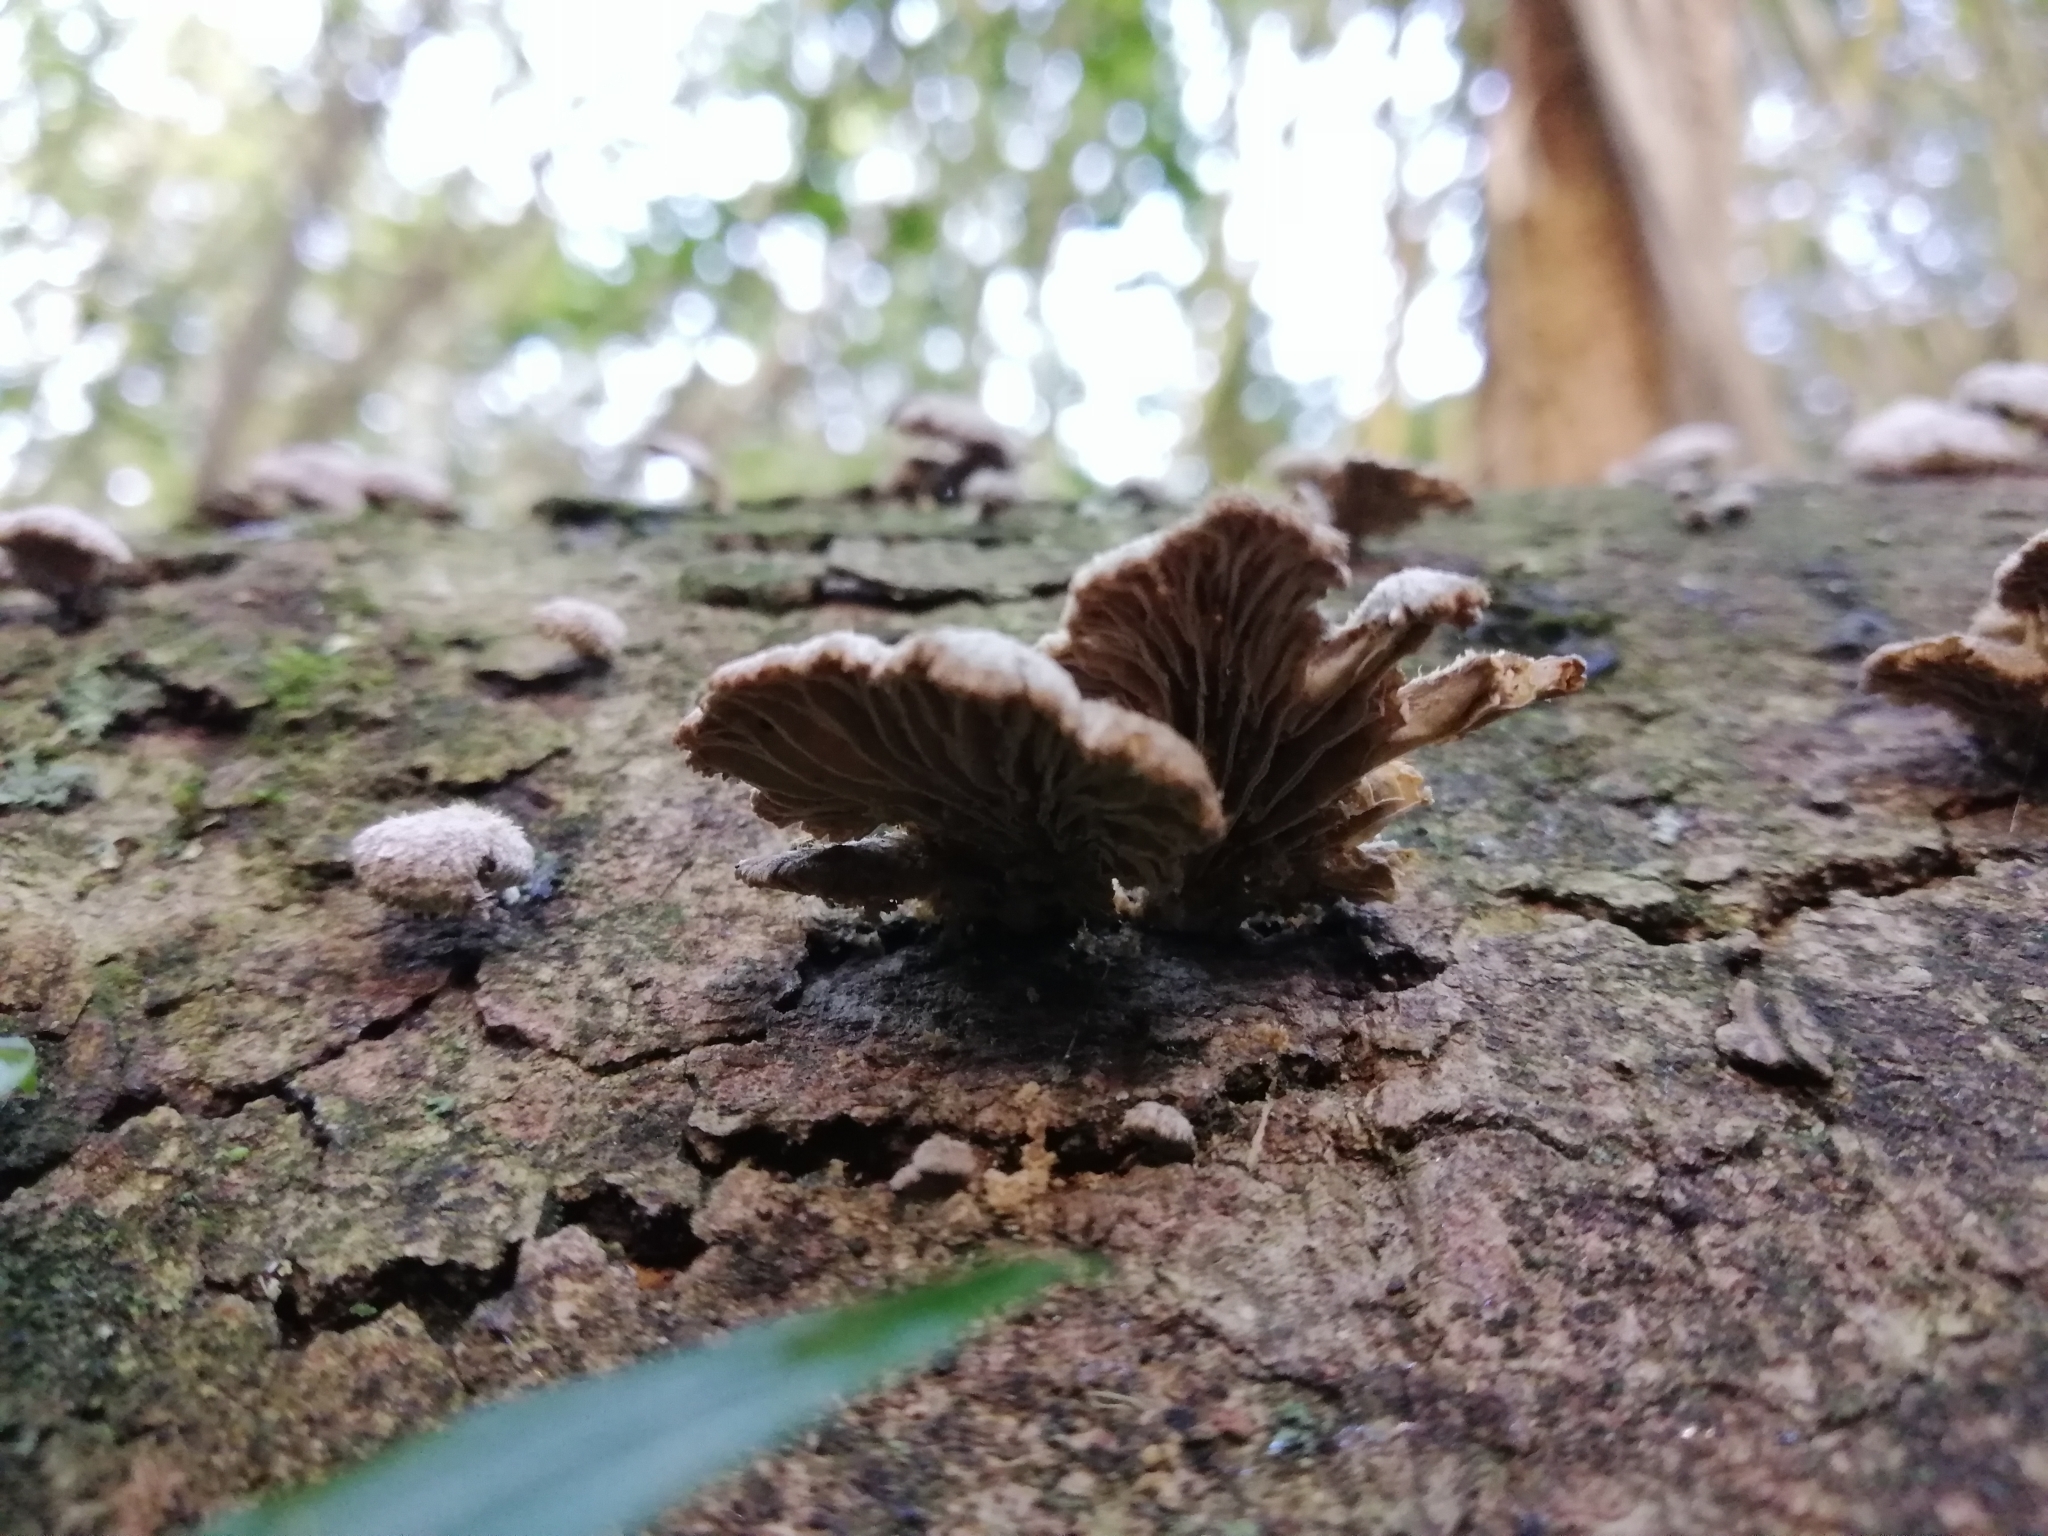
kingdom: Fungi
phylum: Basidiomycota
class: Agaricomycetes
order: Agaricales
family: Schizophyllaceae
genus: Schizophyllum
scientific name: Schizophyllum commune
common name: Common porecrust
